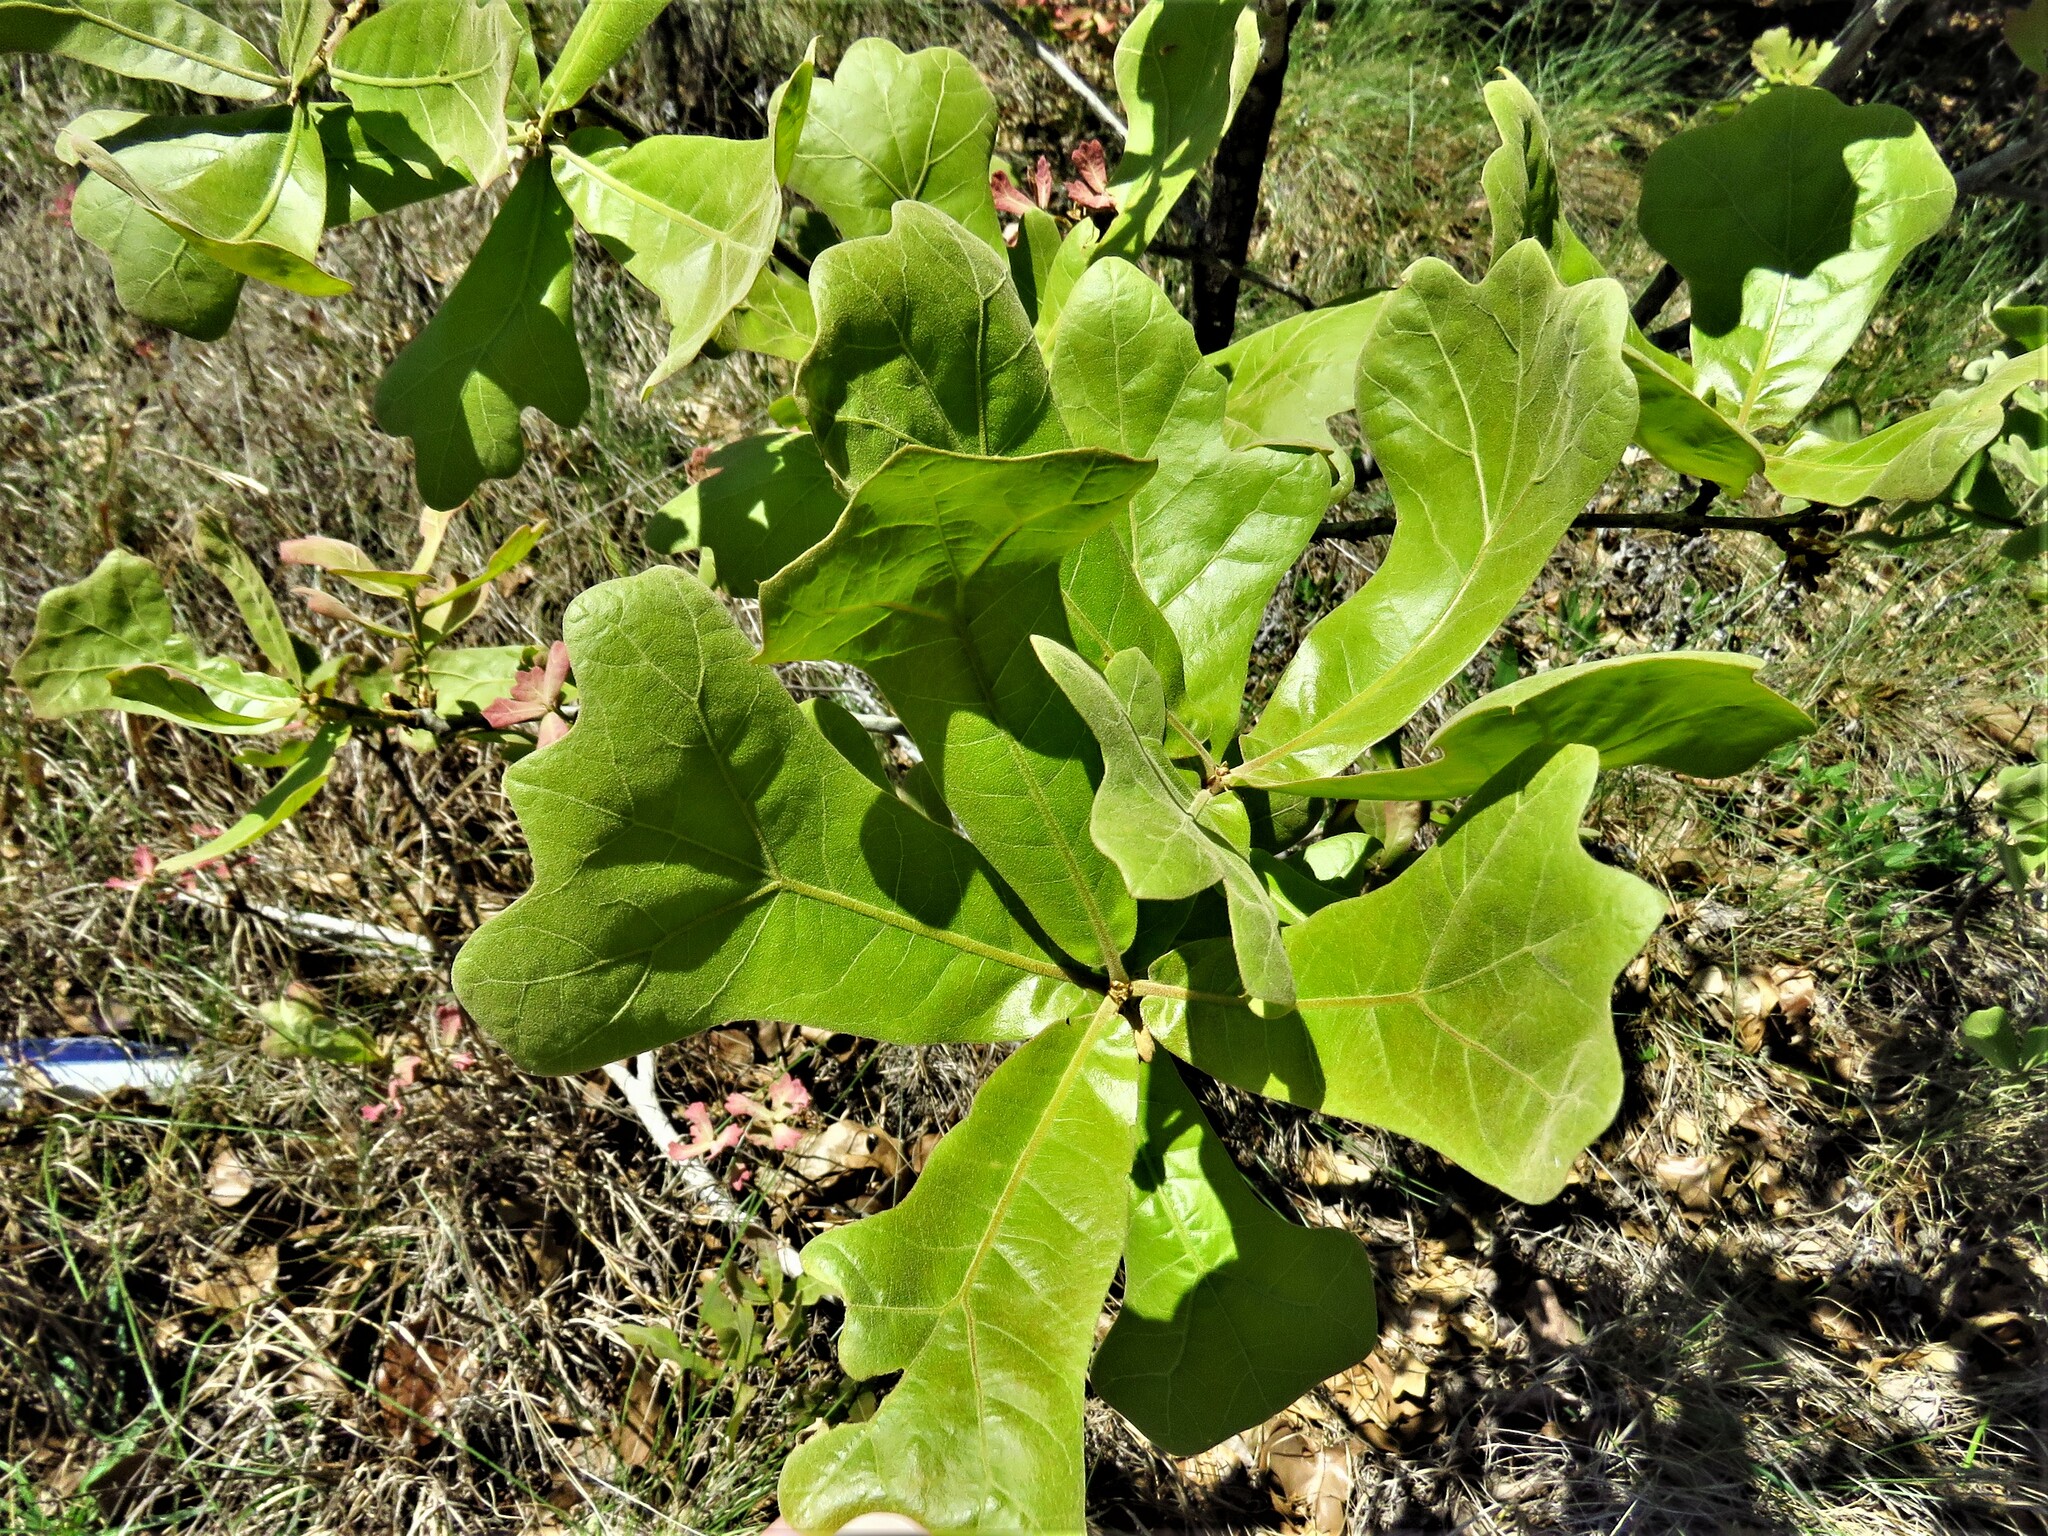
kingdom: Plantae
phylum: Tracheophyta
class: Magnoliopsida
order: Fagales
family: Fagaceae
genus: Quercus
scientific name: Quercus marilandica
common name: Blackjack oak
